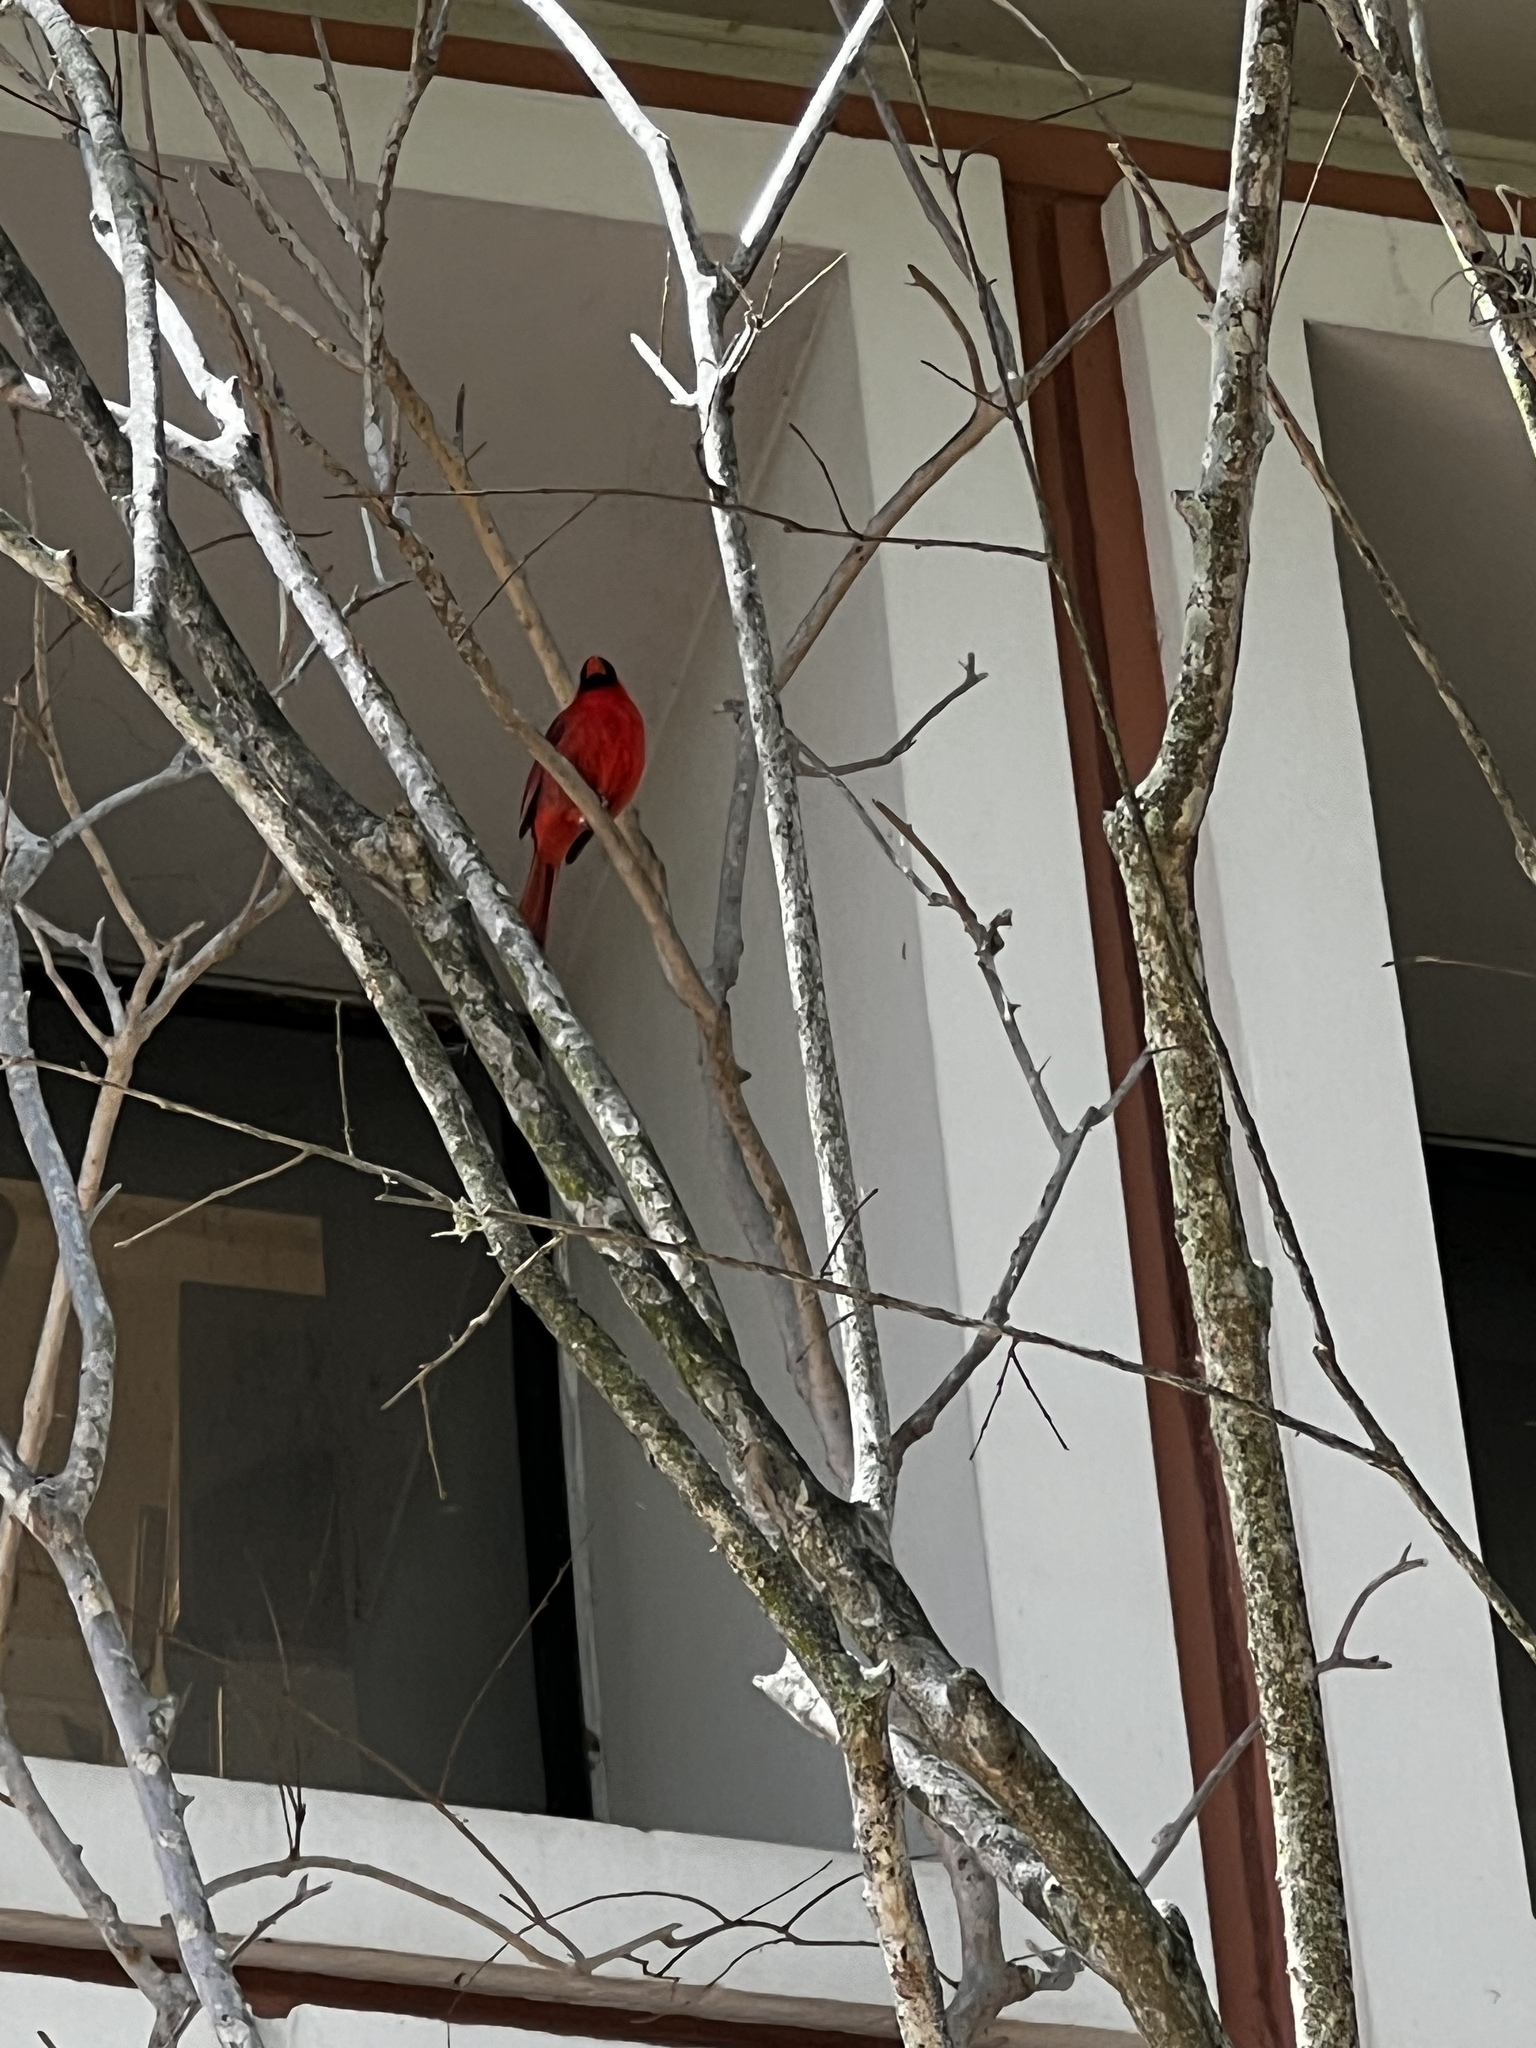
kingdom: Animalia
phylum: Chordata
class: Aves
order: Passeriformes
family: Cardinalidae
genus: Cardinalis
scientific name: Cardinalis cardinalis
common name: Northern cardinal
